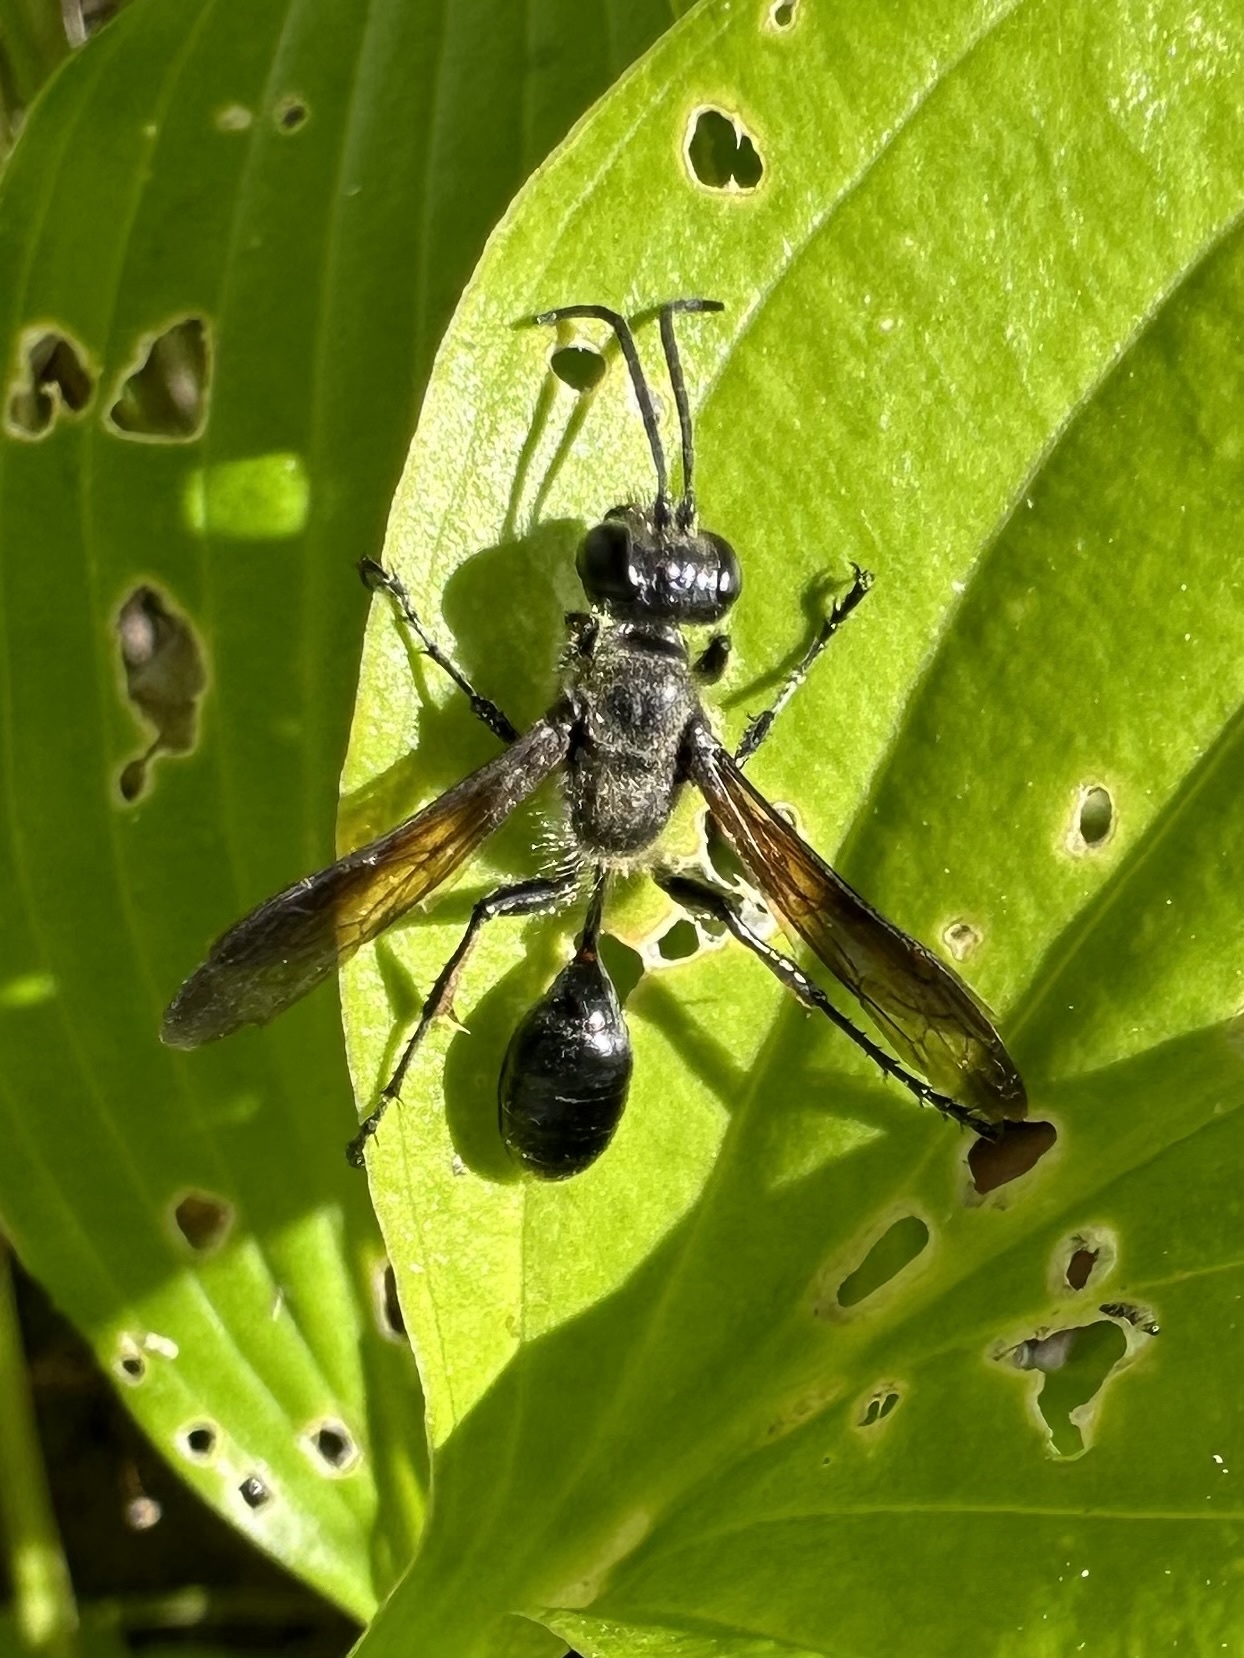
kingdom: Animalia
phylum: Arthropoda
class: Insecta
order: Hymenoptera
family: Sphecidae
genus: Isodontia
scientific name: Isodontia mexicana
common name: Mud dauber
